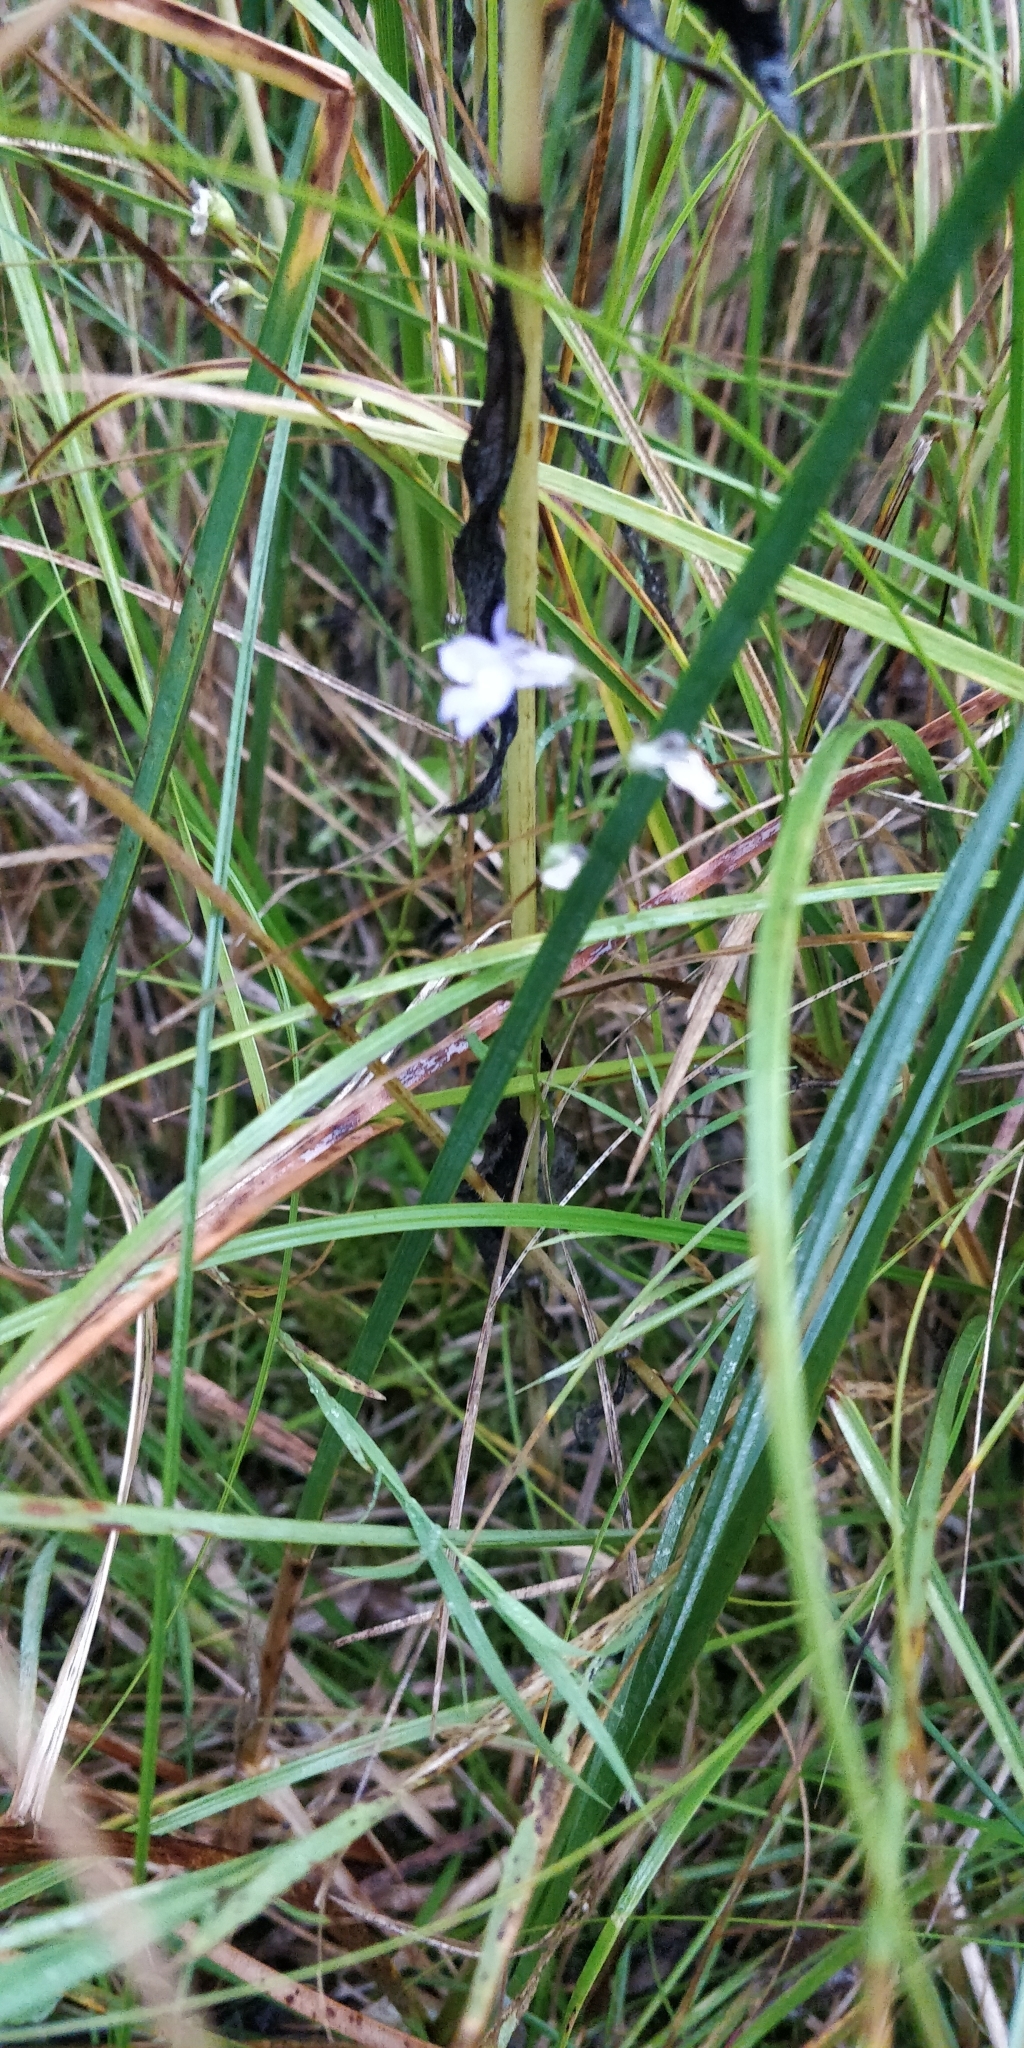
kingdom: Plantae
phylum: Tracheophyta
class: Magnoliopsida
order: Asterales
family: Campanulaceae
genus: Lobelia
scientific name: Lobelia kalmii
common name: Kalm's lobelia
